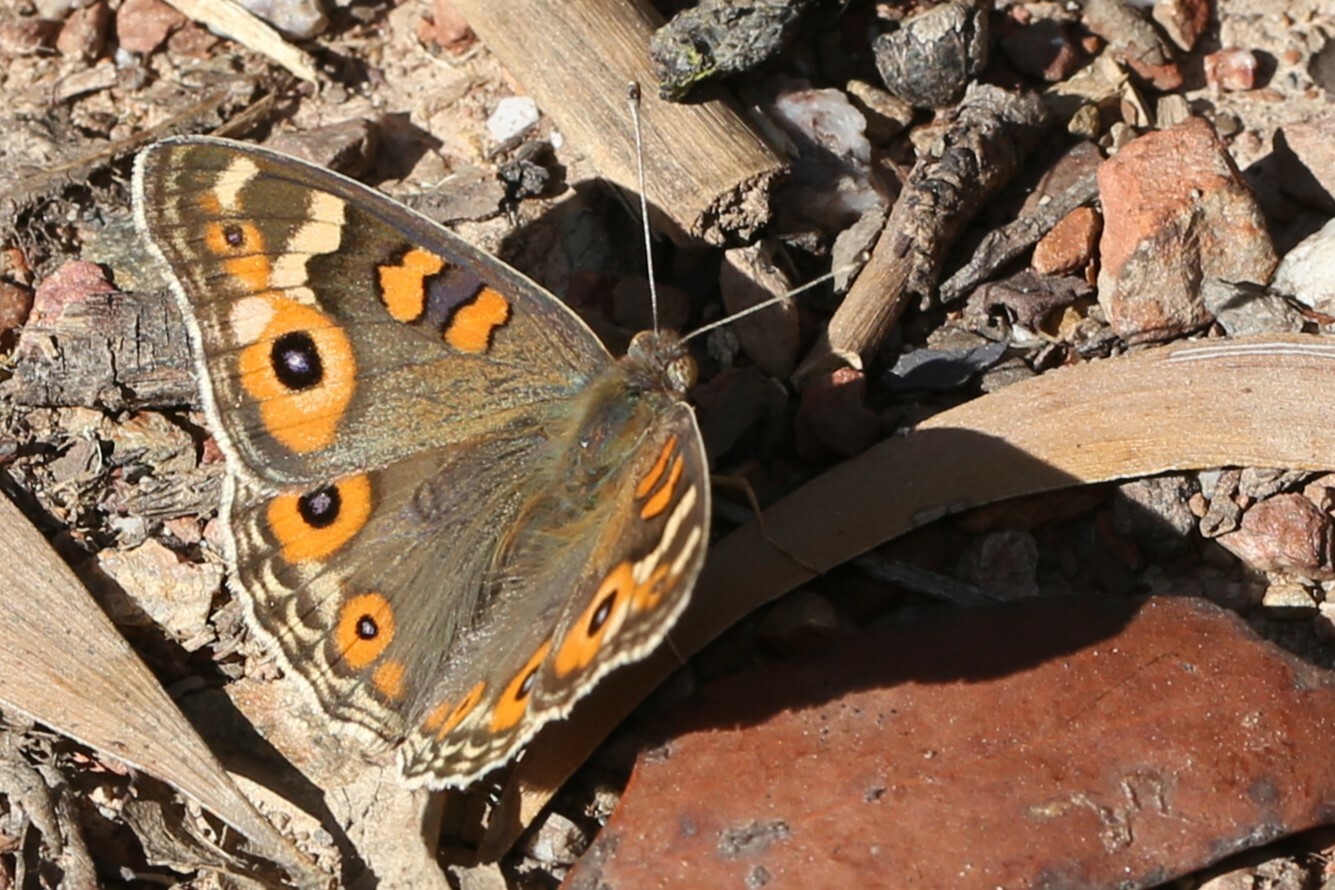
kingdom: Animalia
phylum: Arthropoda
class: Insecta
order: Lepidoptera
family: Nymphalidae
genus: Junonia
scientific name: Junonia villida
